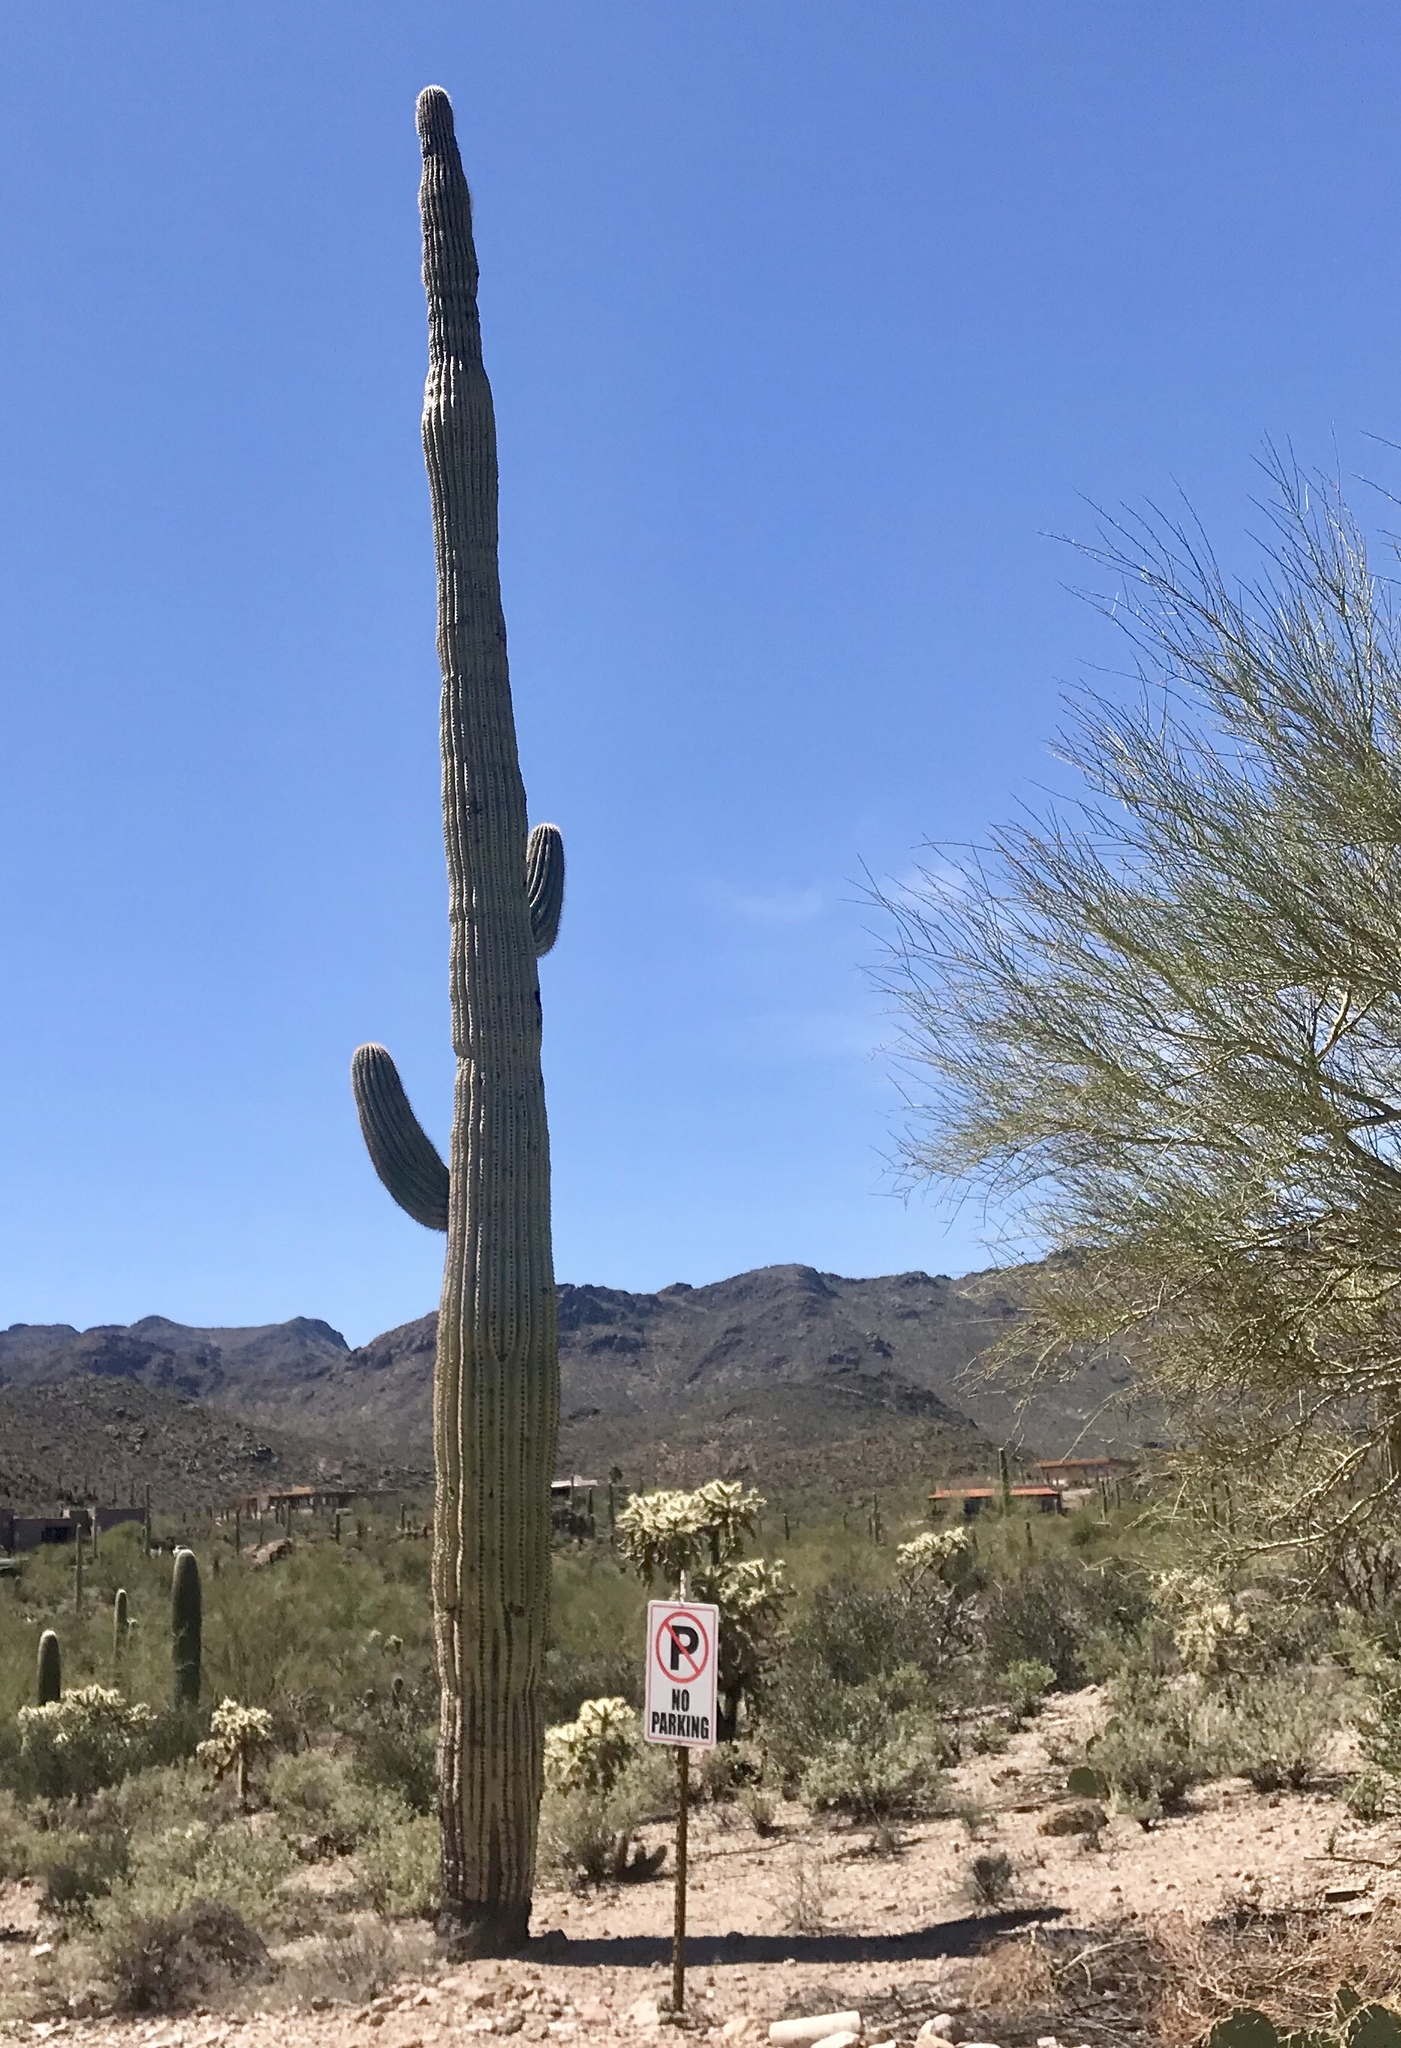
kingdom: Plantae
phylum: Tracheophyta
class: Magnoliopsida
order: Caryophyllales
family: Cactaceae
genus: Carnegiea
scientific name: Carnegiea gigantea
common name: Saguaro
